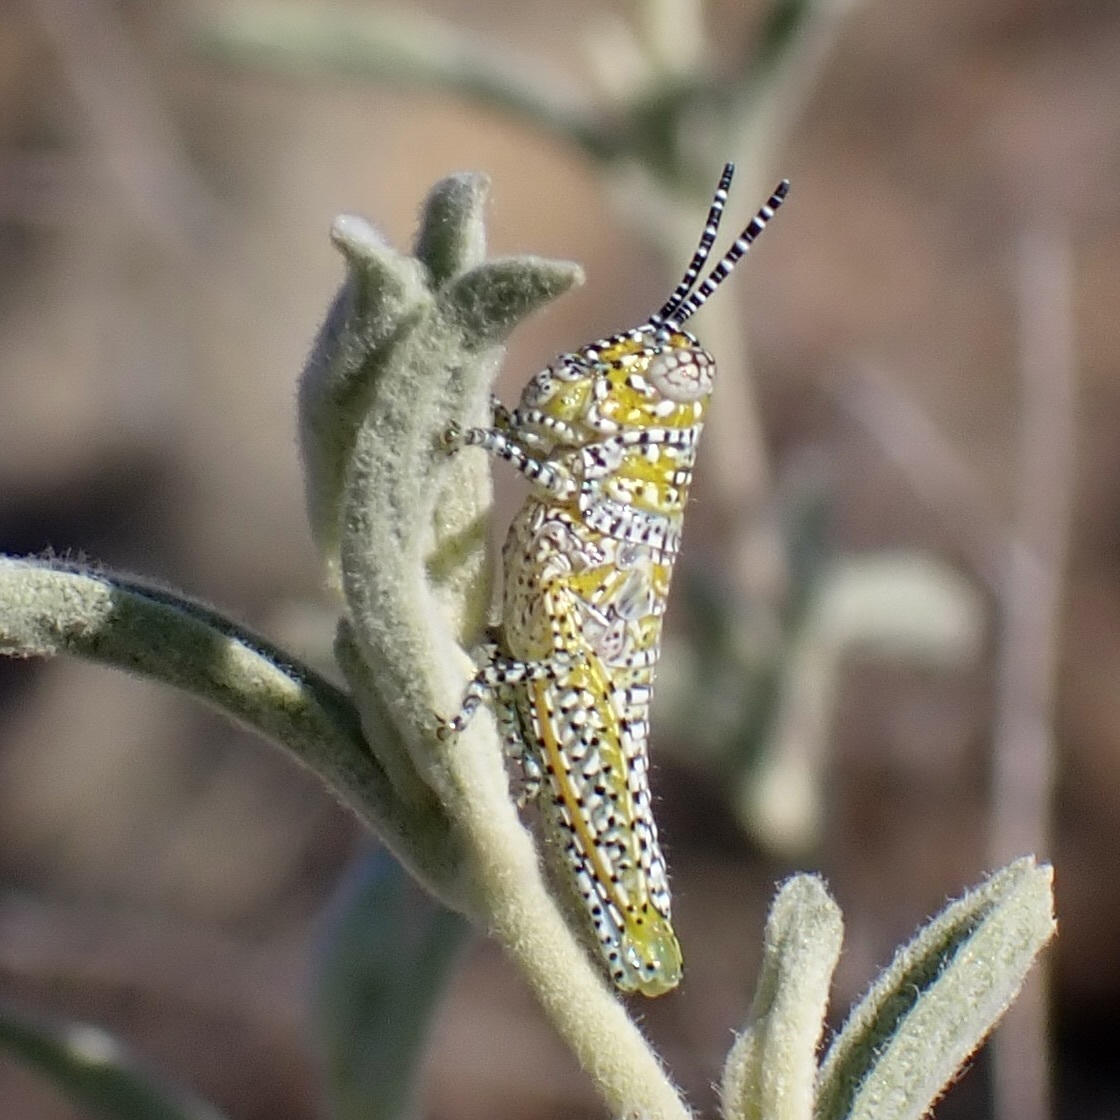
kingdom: Animalia
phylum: Arthropoda
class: Insecta
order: Orthoptera
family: Acrididae
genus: Poecilotettix
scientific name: Poecilotettix pantherinus
